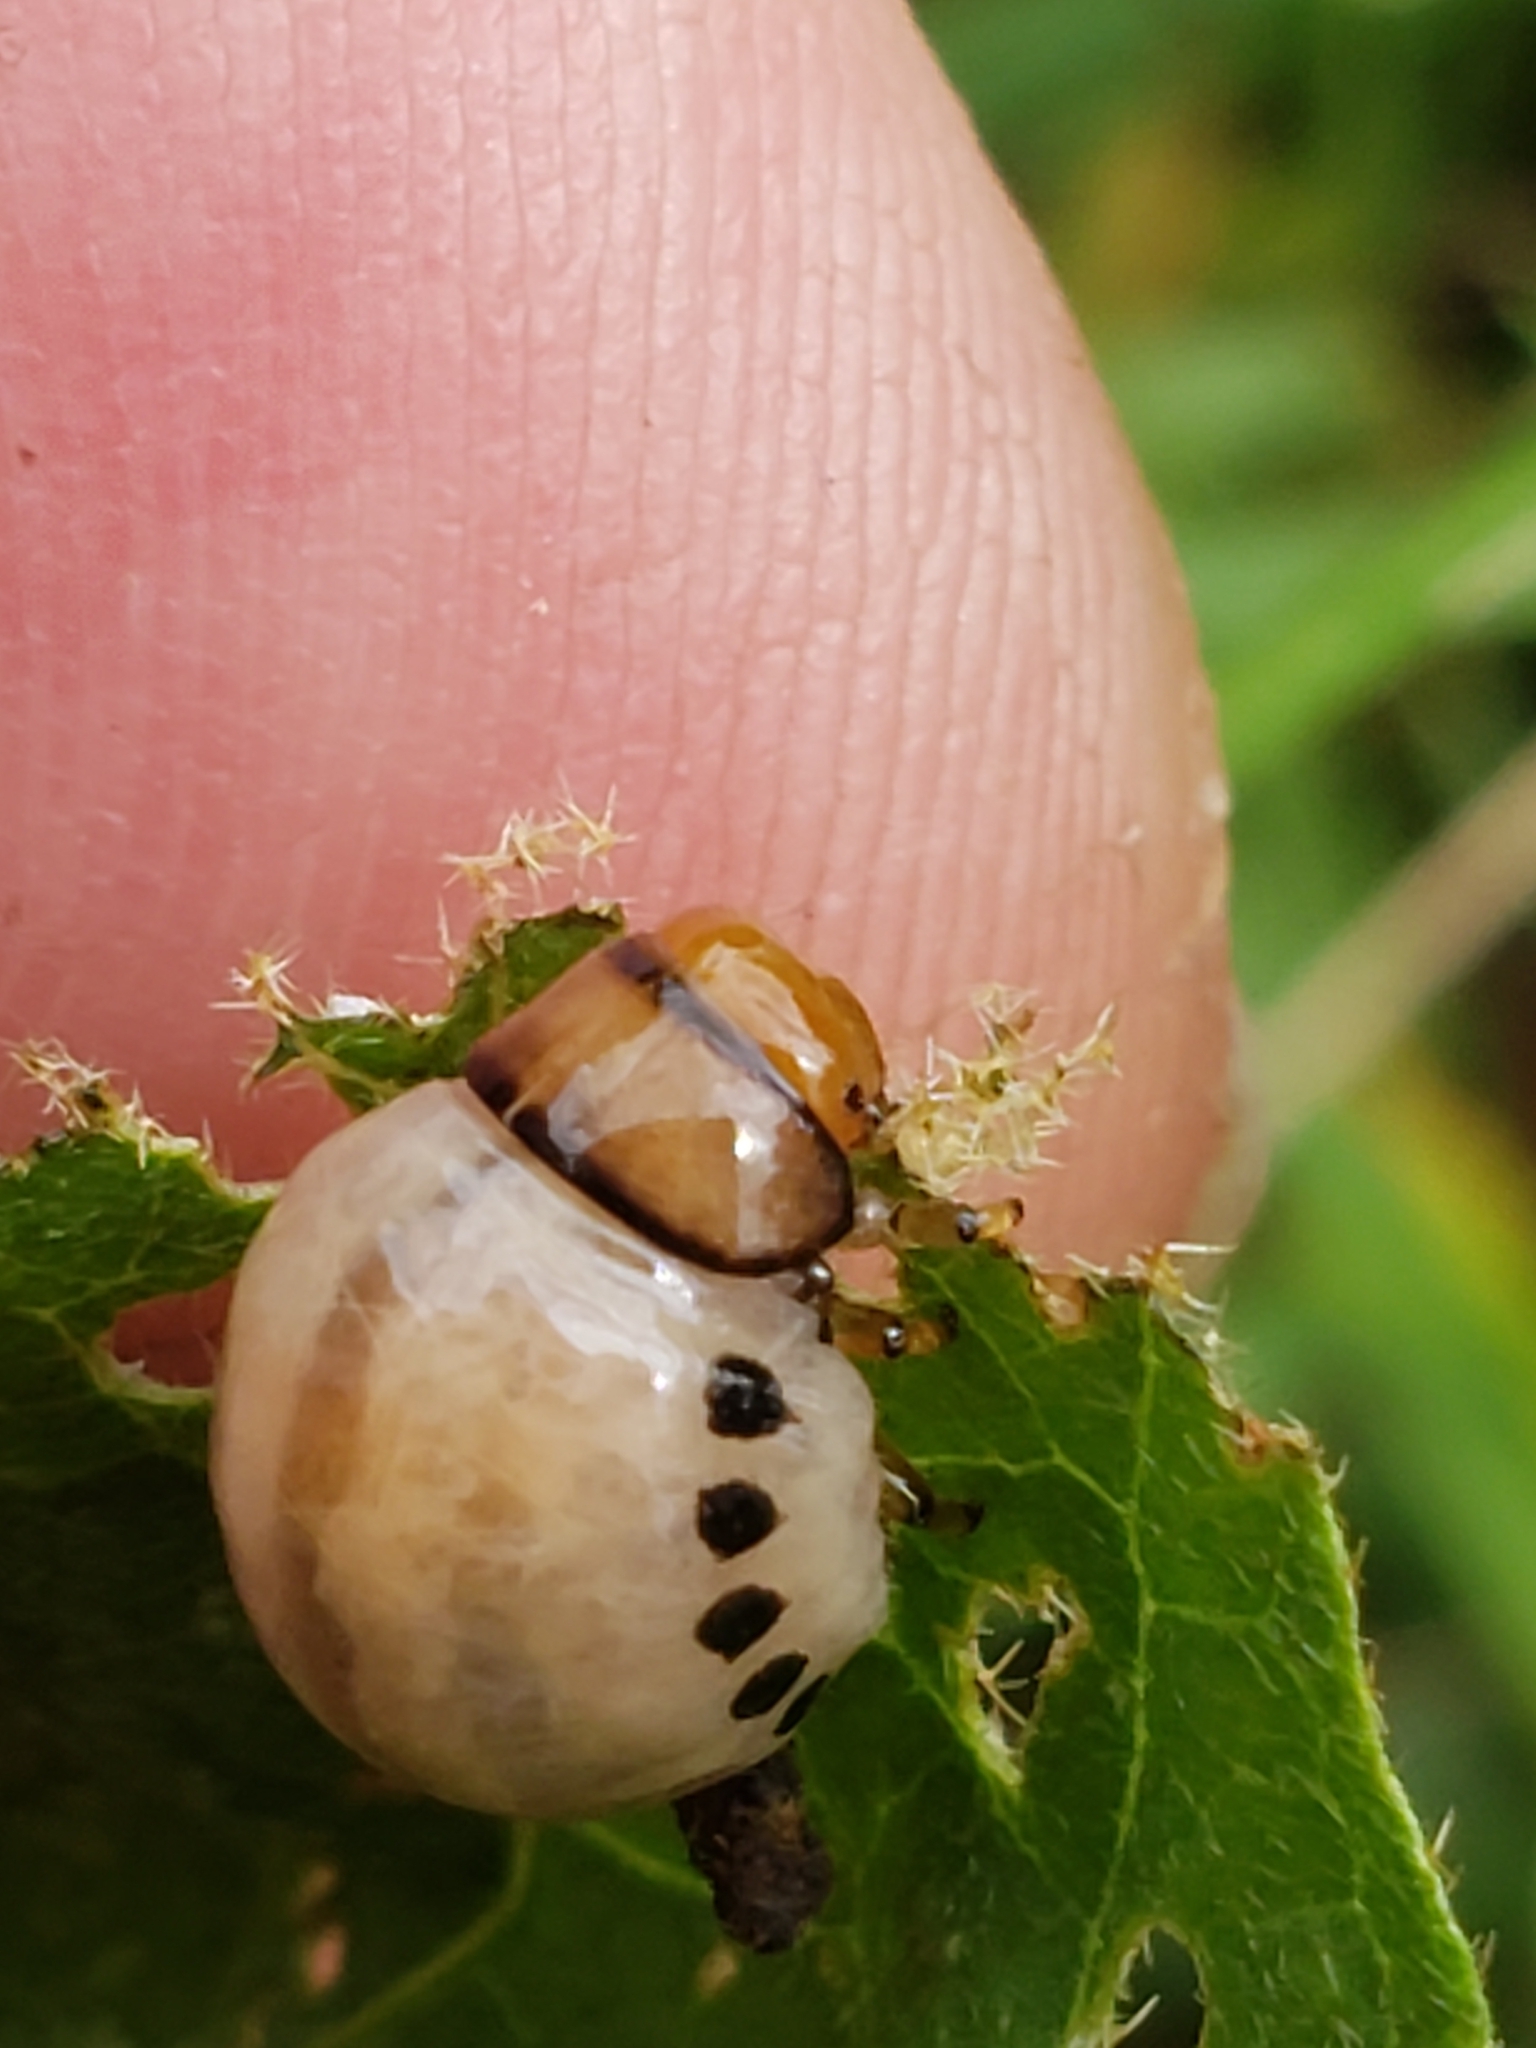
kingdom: Animalia
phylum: Arthropoda
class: Insecta
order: Coleoptera
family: Chrysomelidae
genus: Leptinotarsa
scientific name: Leptinotarsa juncta
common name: False potato beetle
